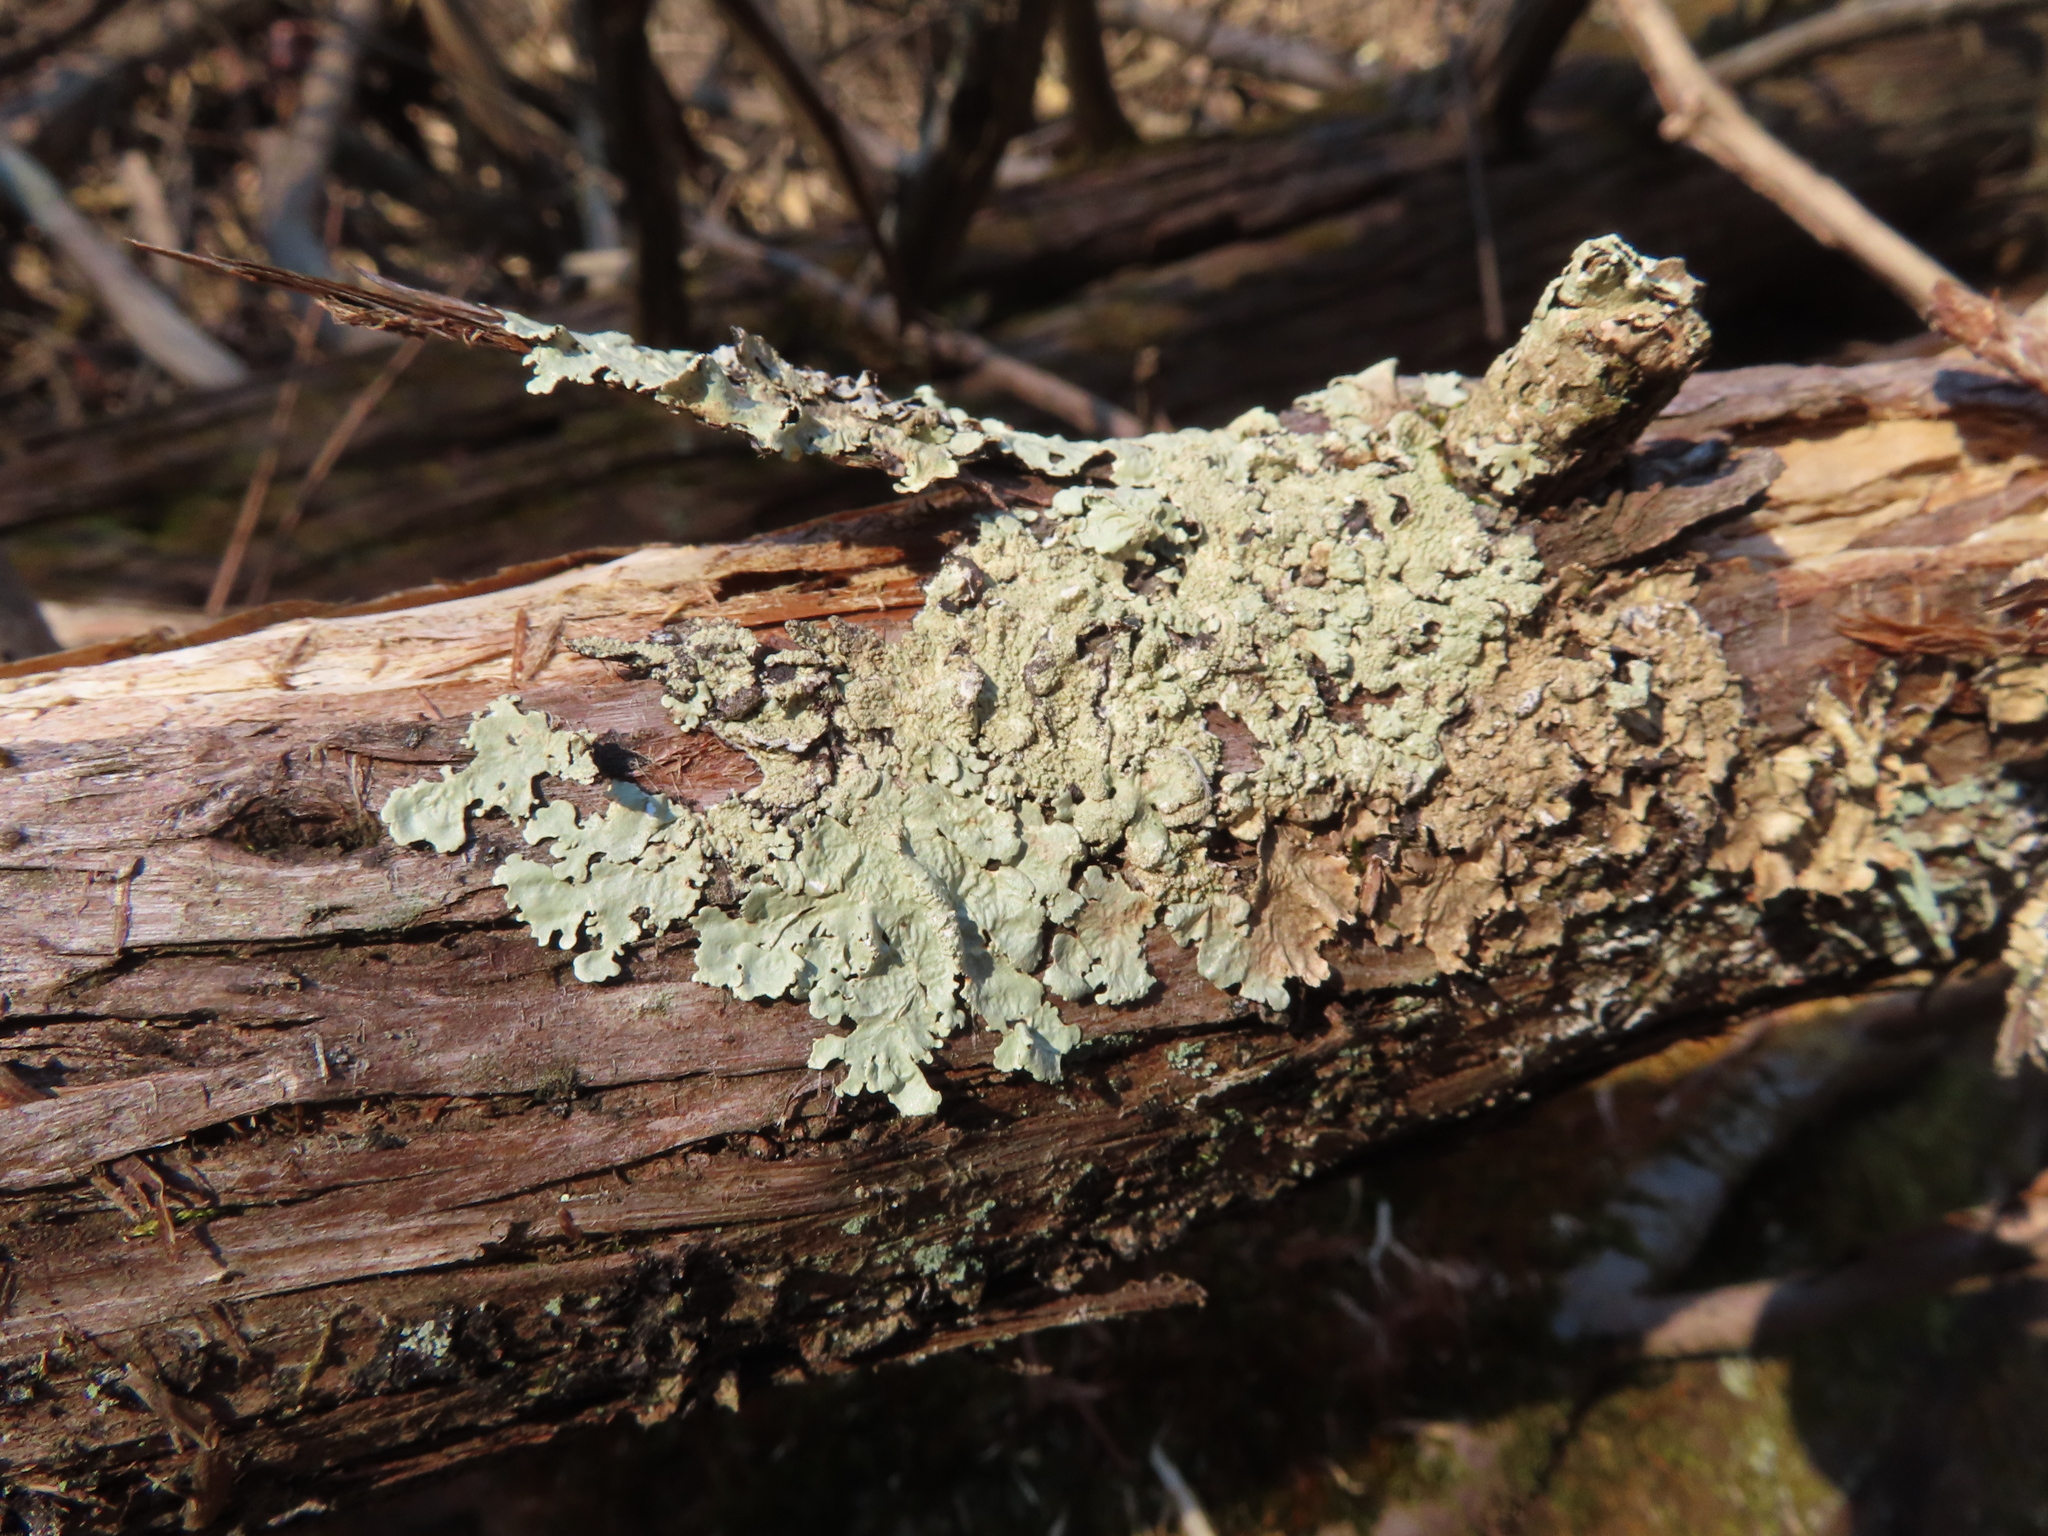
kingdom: Fungi
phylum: Ascomycota
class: Lecanoromycetes
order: Lecanorales
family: Parmeliaceae
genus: Flavoparmelia
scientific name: Flavoparmelia caperata
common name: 40-mile per hour lichen
